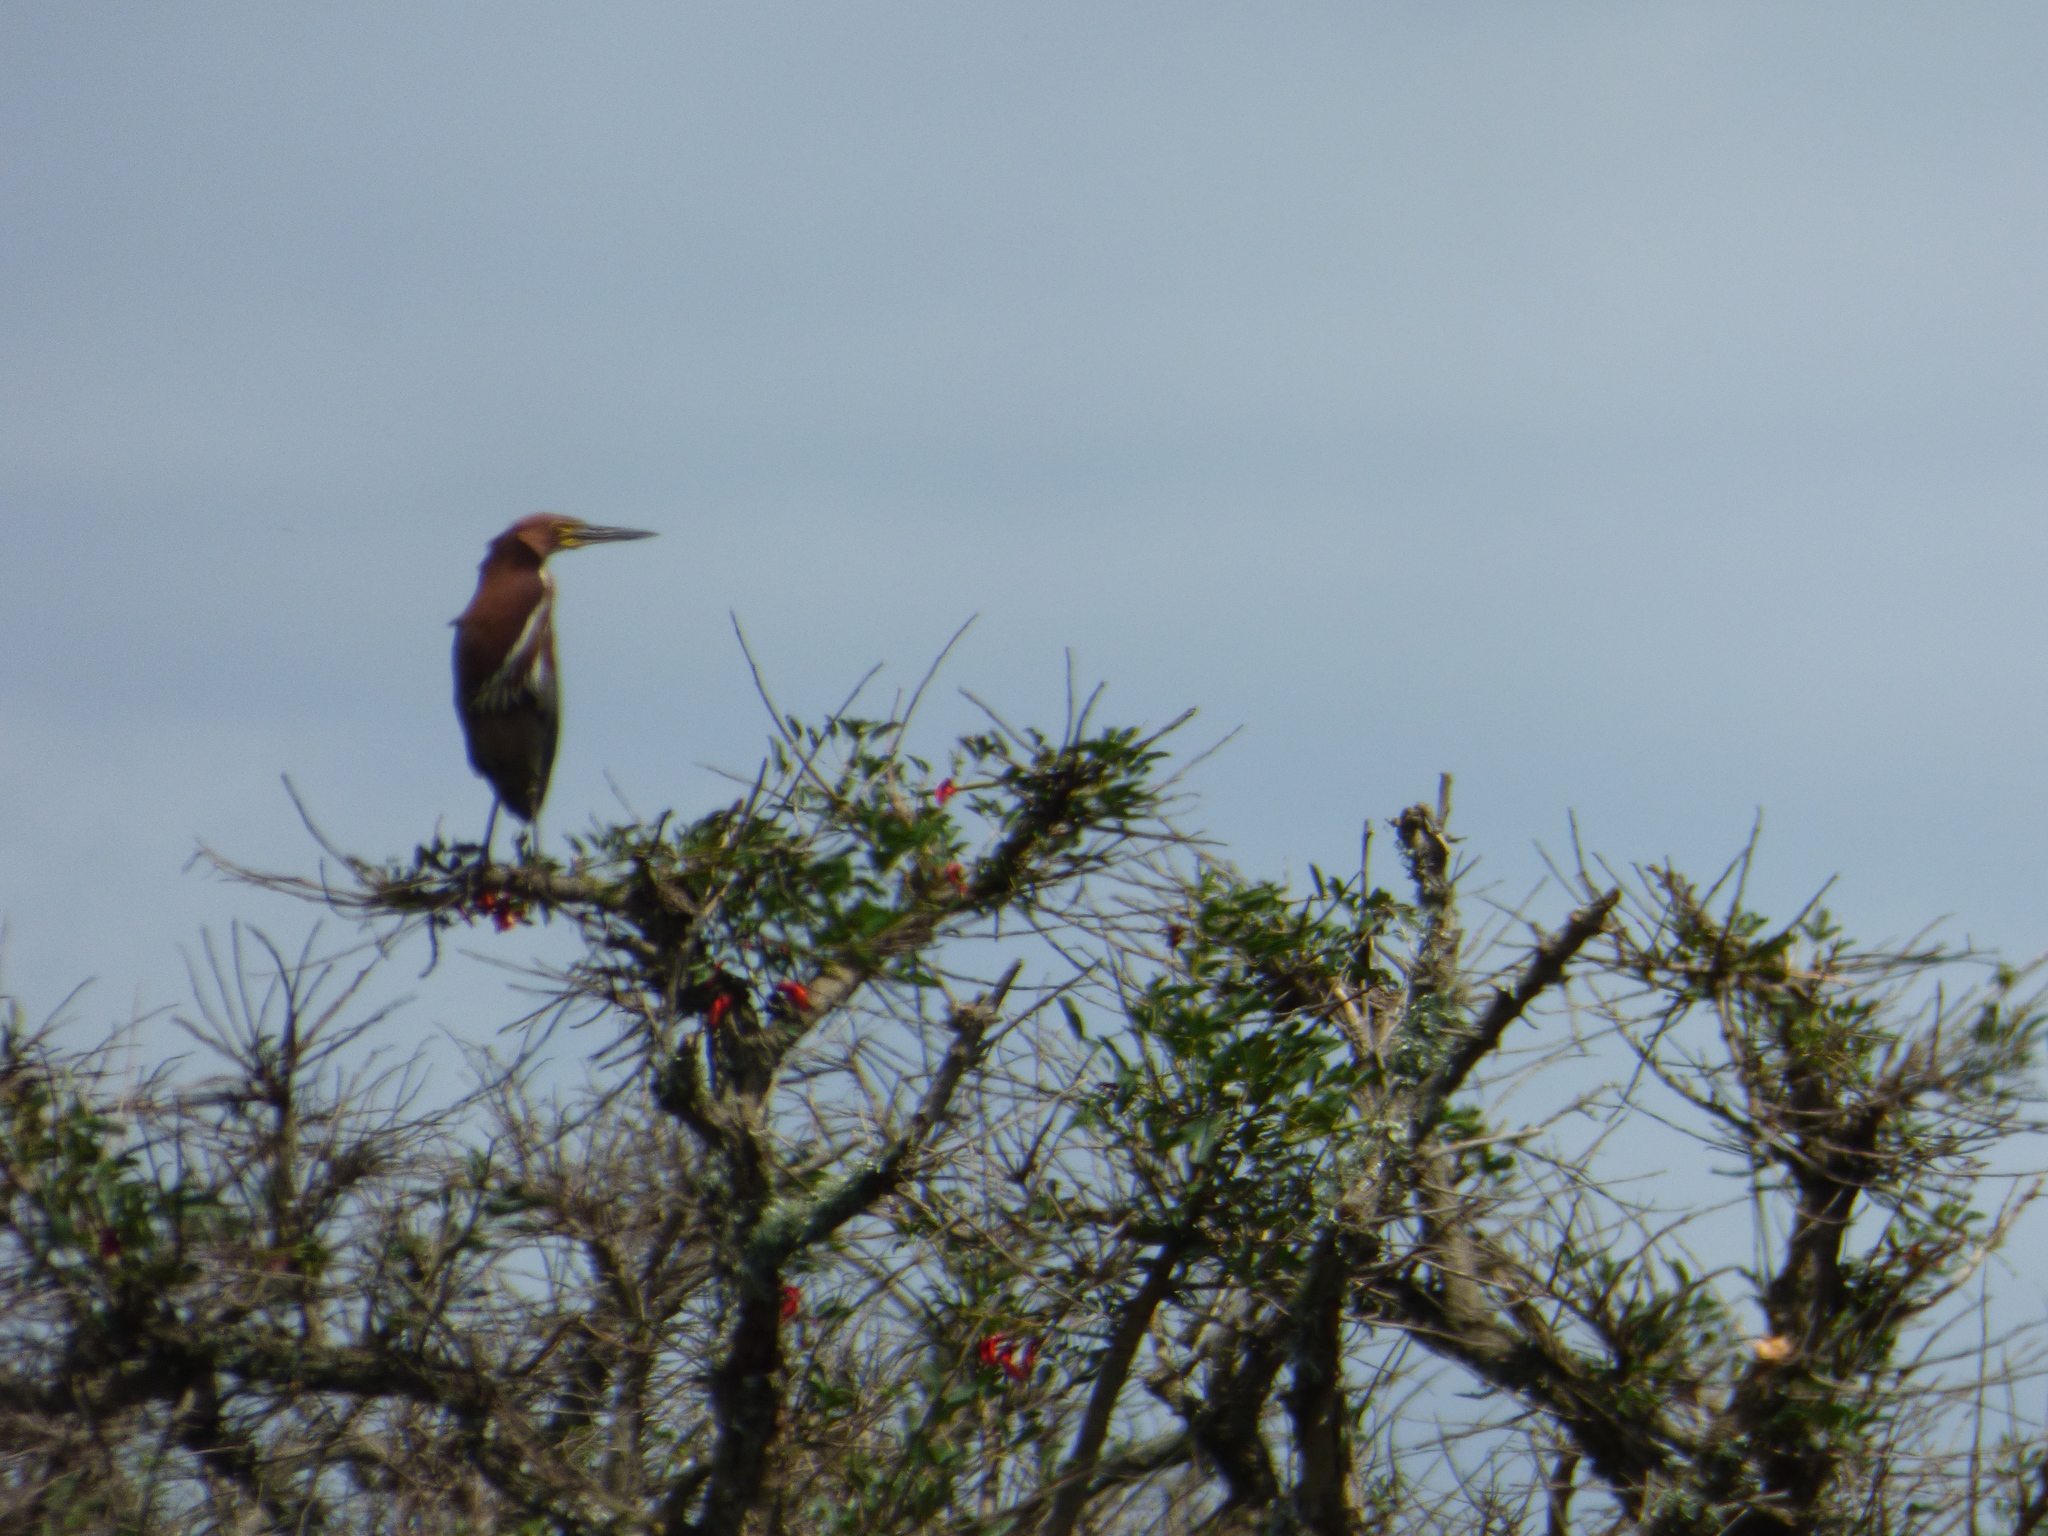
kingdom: Animalia
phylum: Chordata
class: Aves
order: Pelecaniformes
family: Ardeidae
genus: Tigrisoma
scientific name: Tigrisoma lineatum
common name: Rufescent tiger-heron
